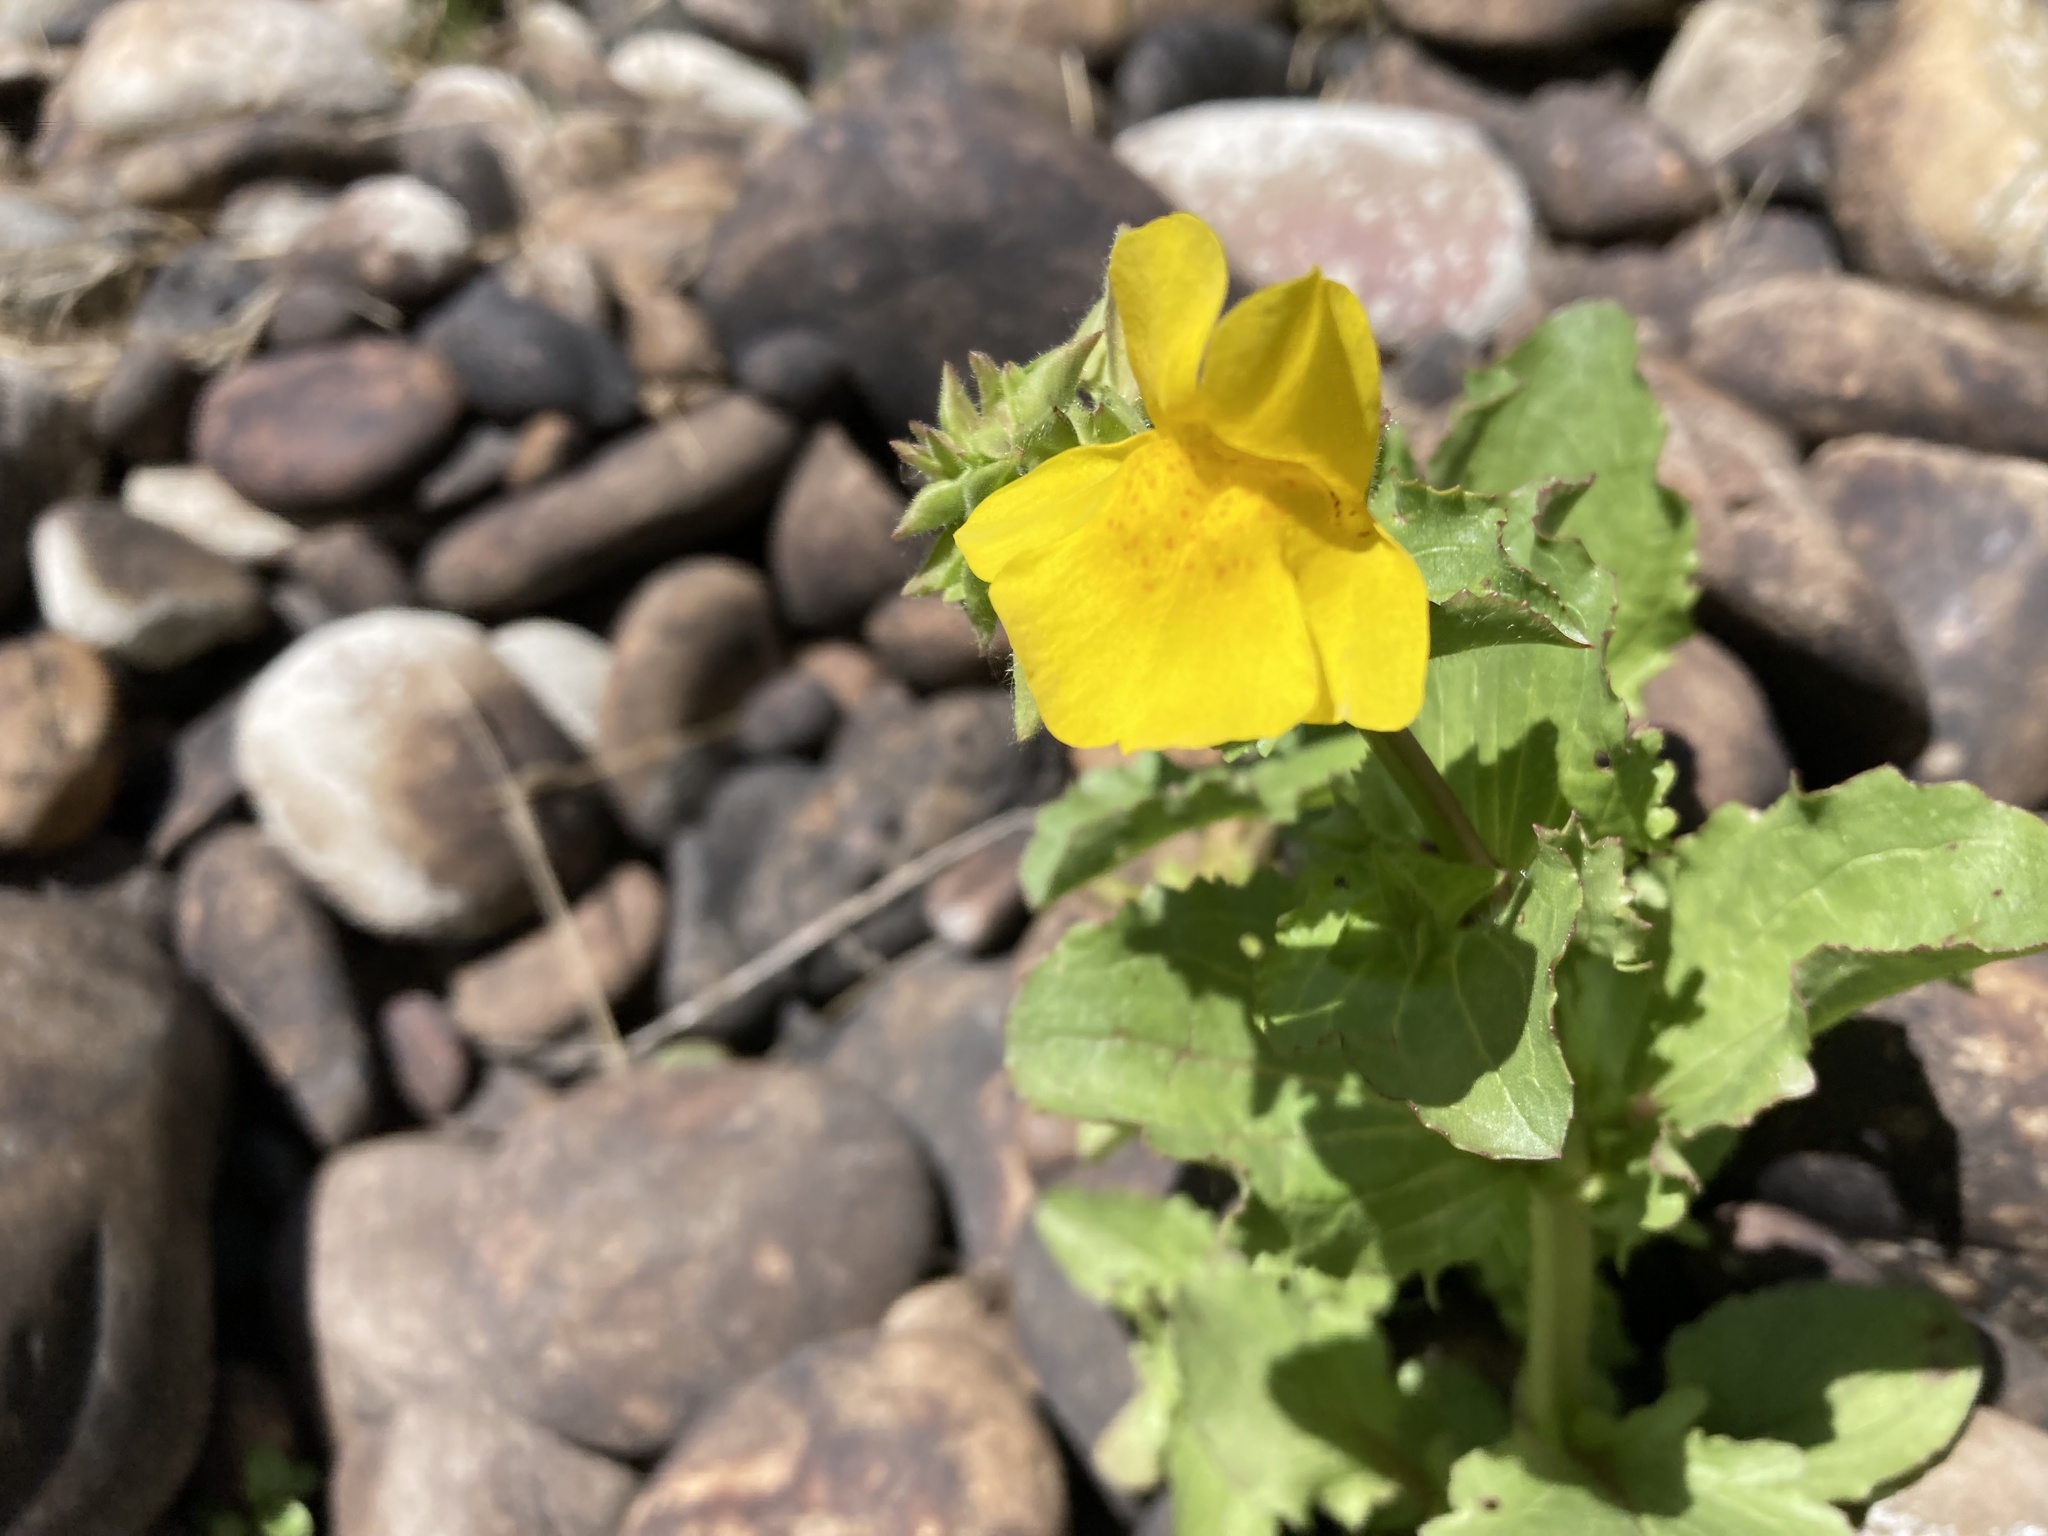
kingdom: Plantae
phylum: Tracheophyta
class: Magnoliopsida
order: Lamiales
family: Phrymaceae
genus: Erythranthe
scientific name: Erythranthe guttata
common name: Monkeyflower
